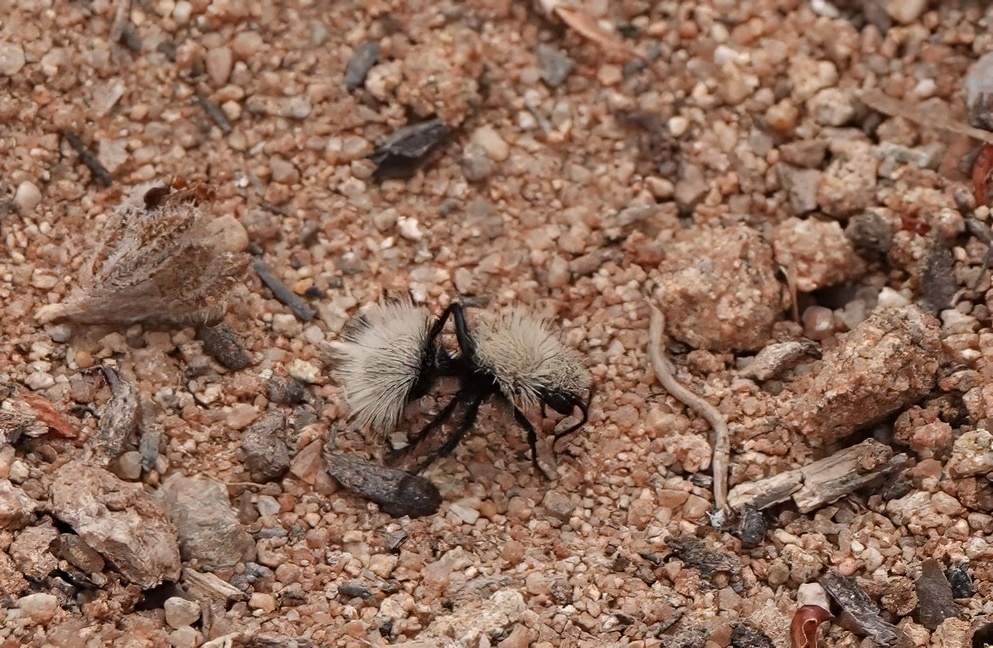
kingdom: Animalia
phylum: Arthropoda
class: Insecta
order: Hymenoptera
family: Mutillidae
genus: Dasymutilla
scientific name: Dasymutilla
